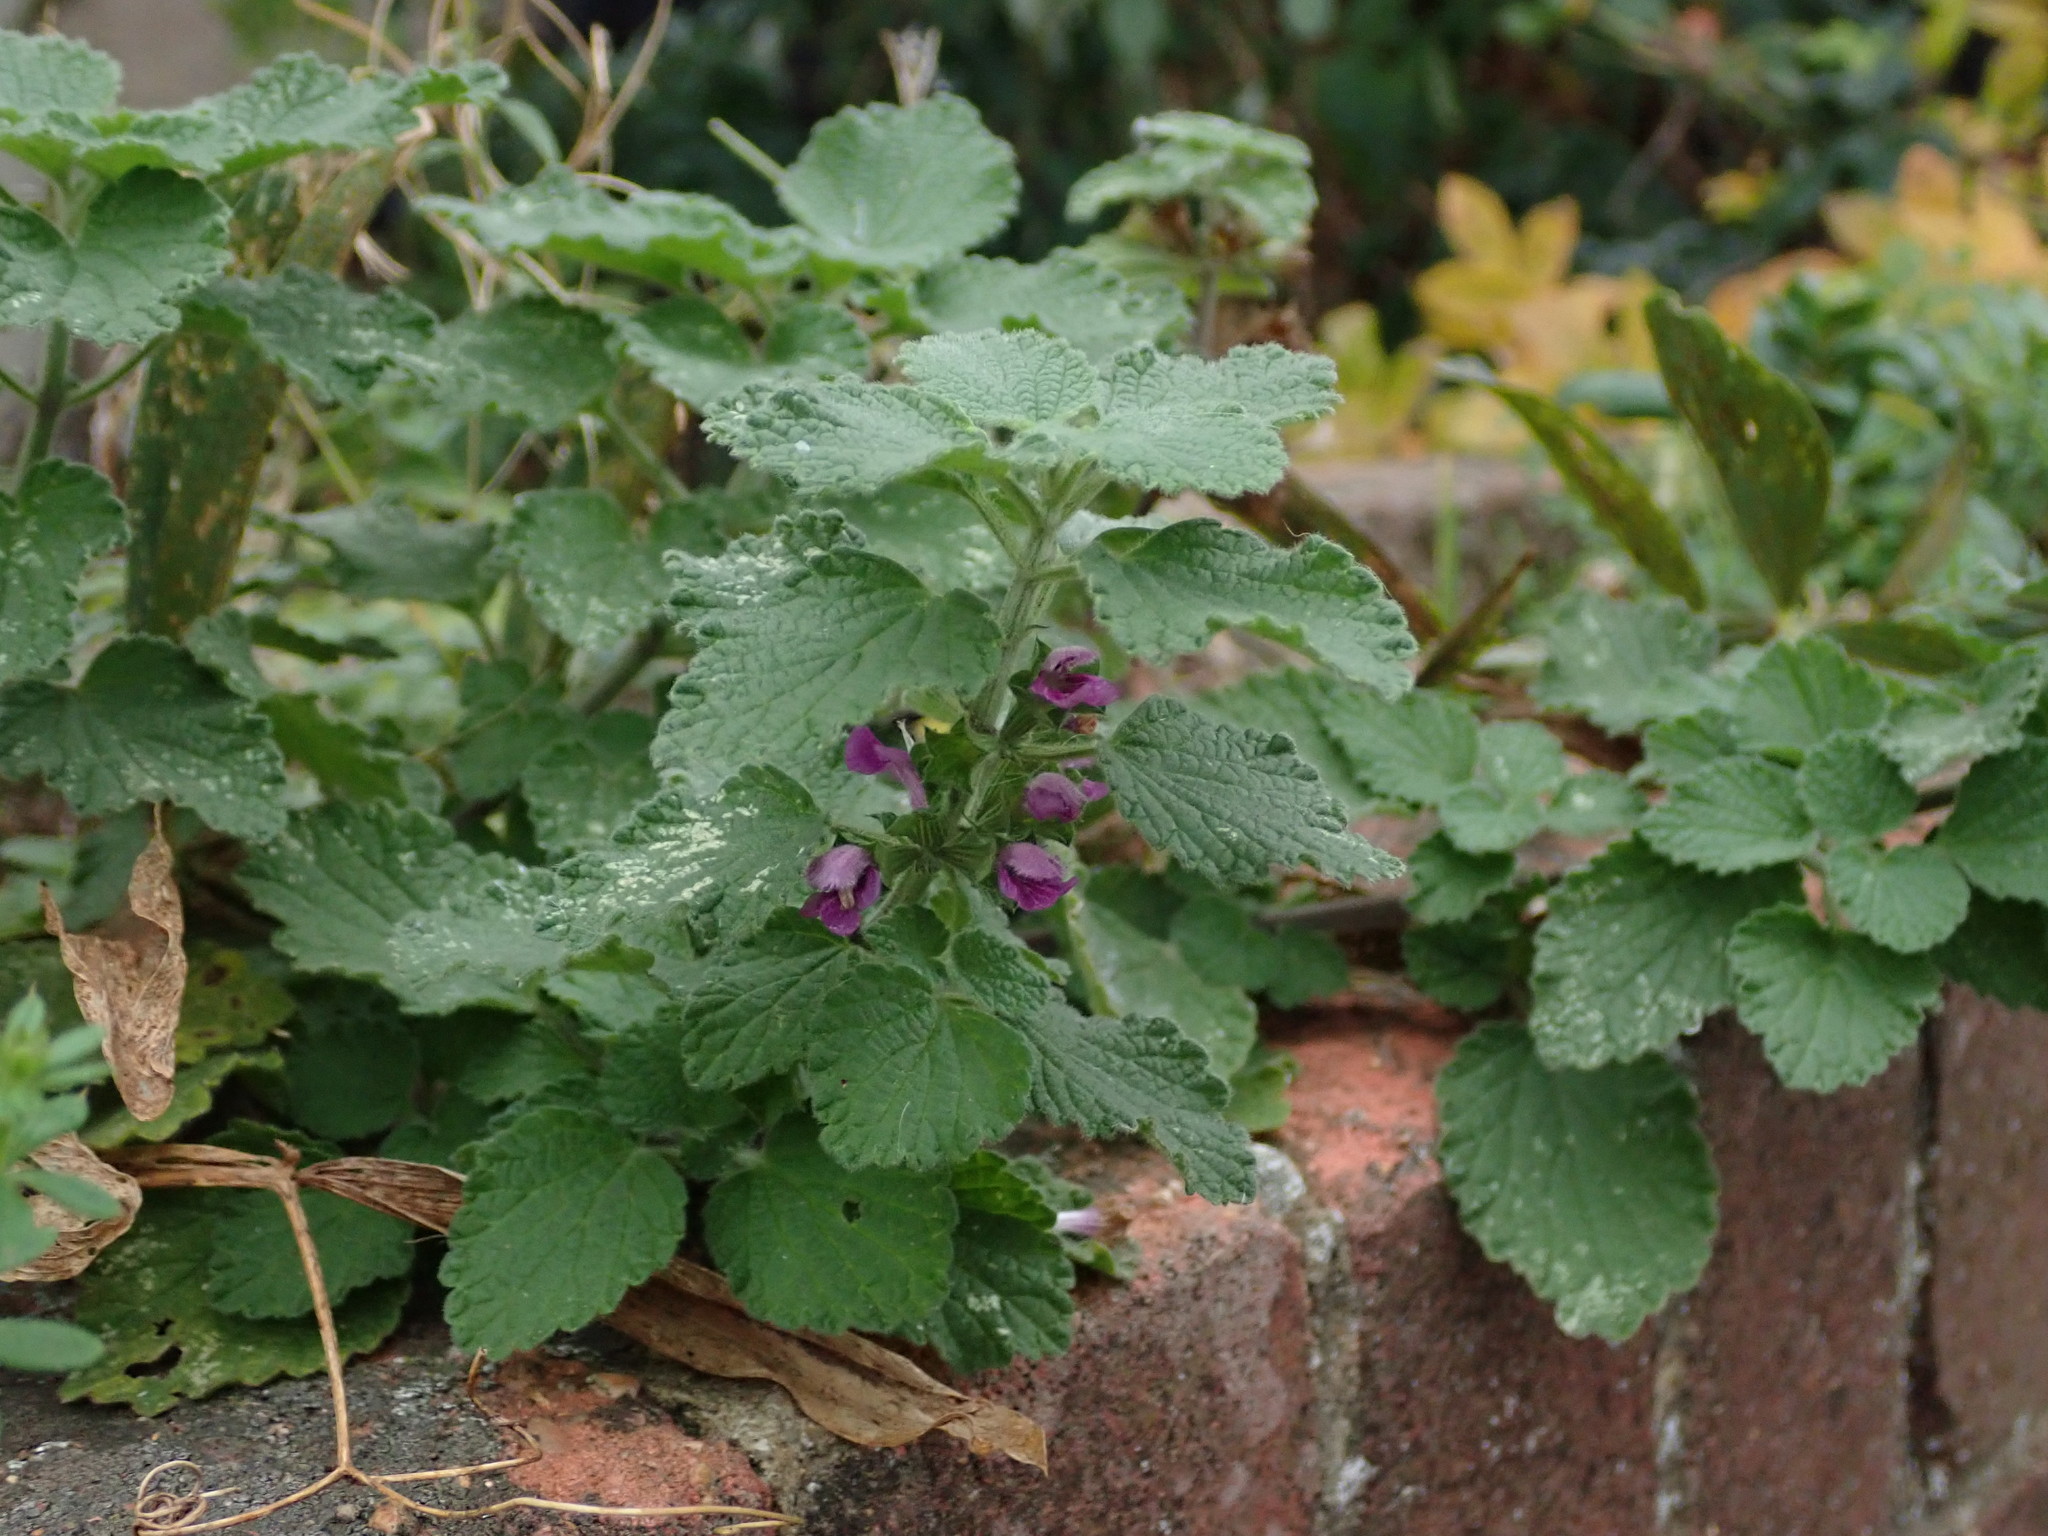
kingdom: Plantae
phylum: Tracheophyta
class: Magnoliopsida
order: Lamiales
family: Lamiaceae
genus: Ballota
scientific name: Ballota nigra
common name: Black horehound
